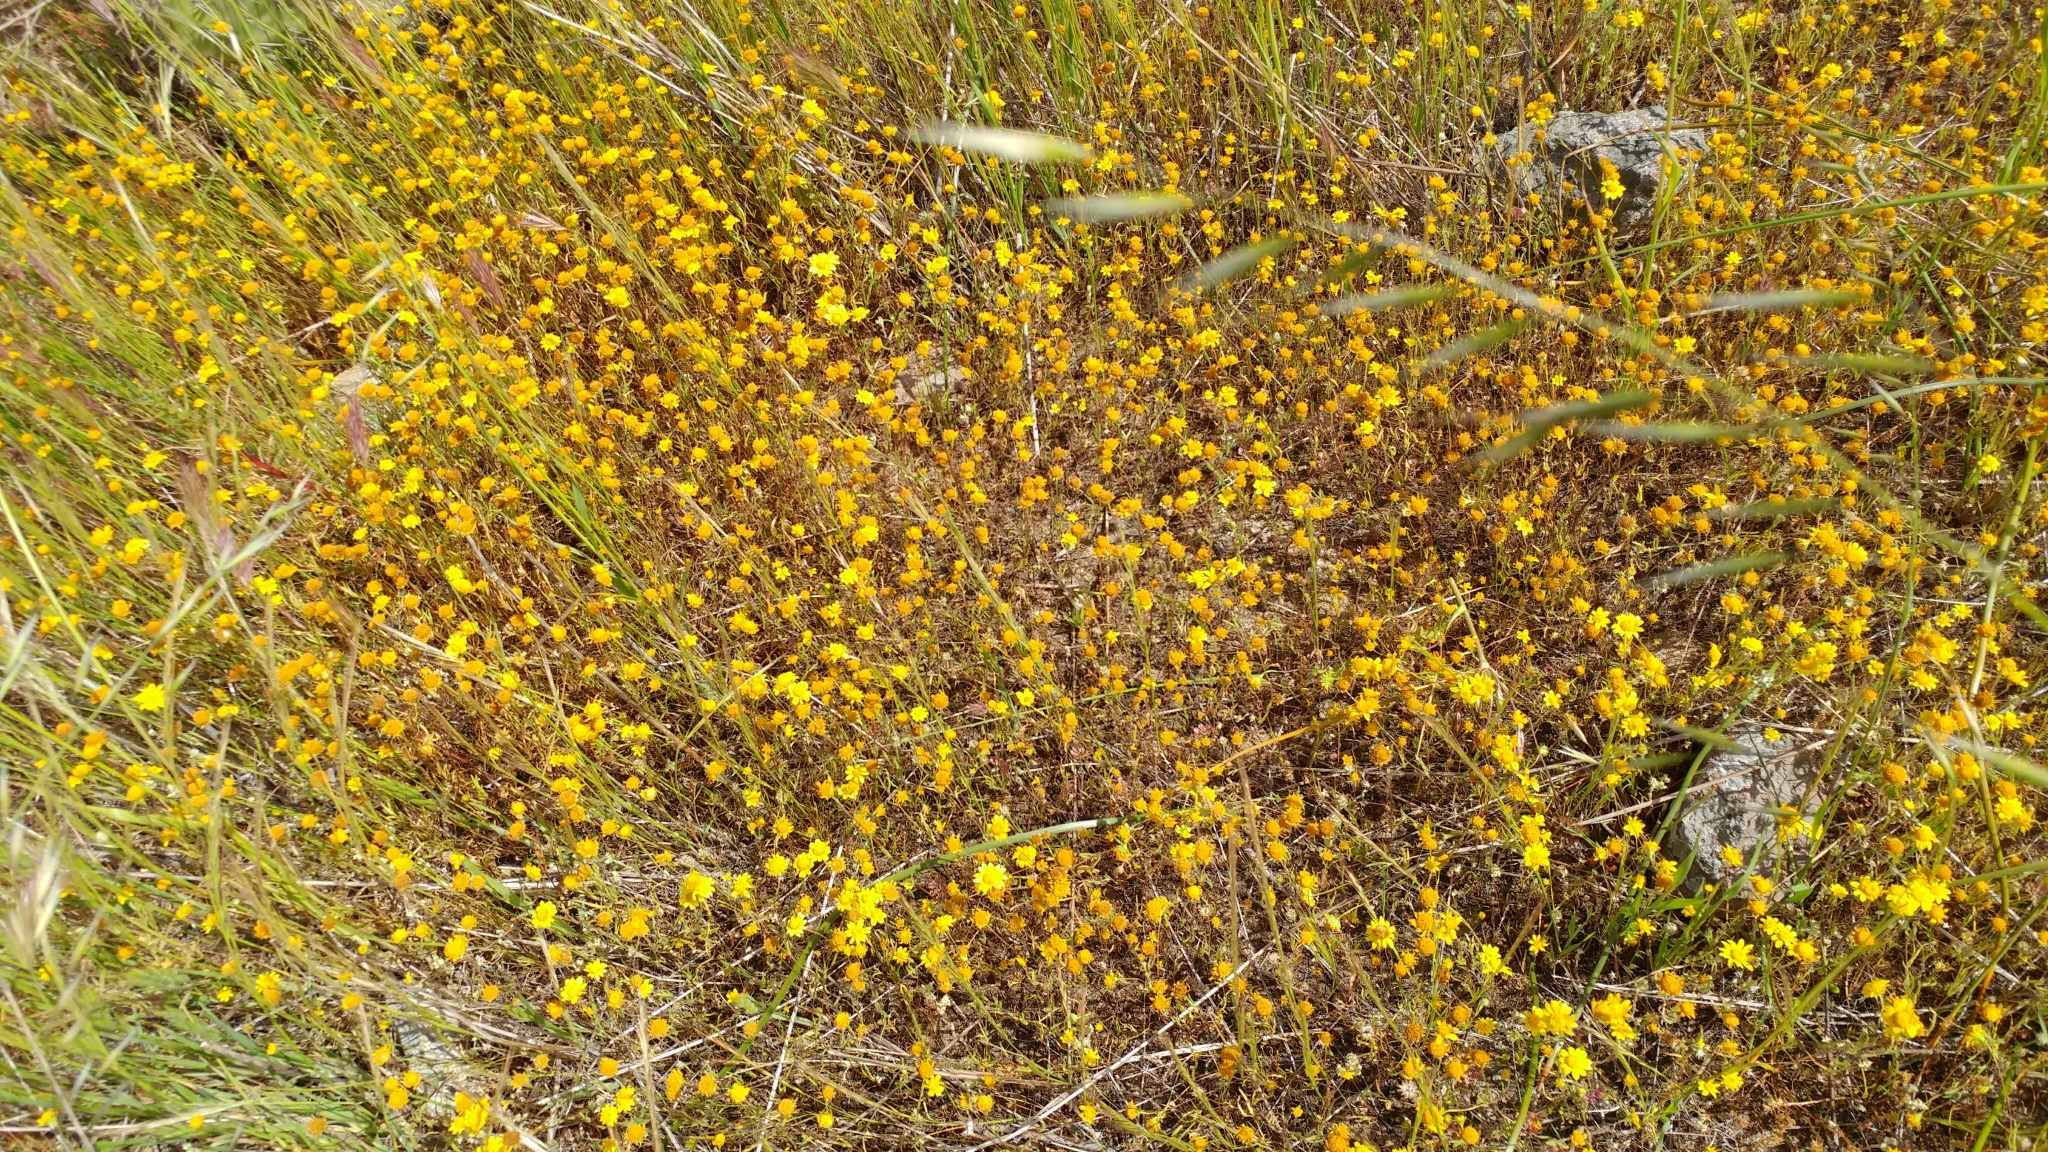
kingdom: Plantae
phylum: Tracheophyta
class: Magnoliopsida
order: Asterales
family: Asteraceae
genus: Lasthenia
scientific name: Lasthenia gracilis
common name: Common goldfields
